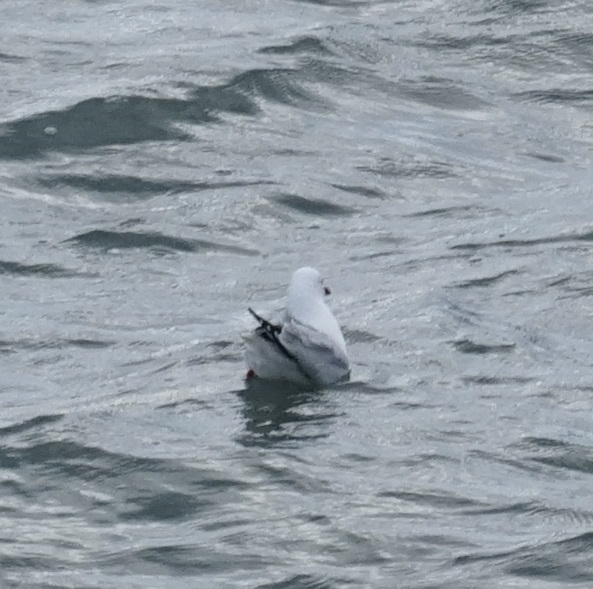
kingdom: Animalia
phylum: Chordata
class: Aves
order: Charadriiformes
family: Laridae
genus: Chroicocephalus
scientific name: Chroicocephalus novaehollandiae
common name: Silver gull
